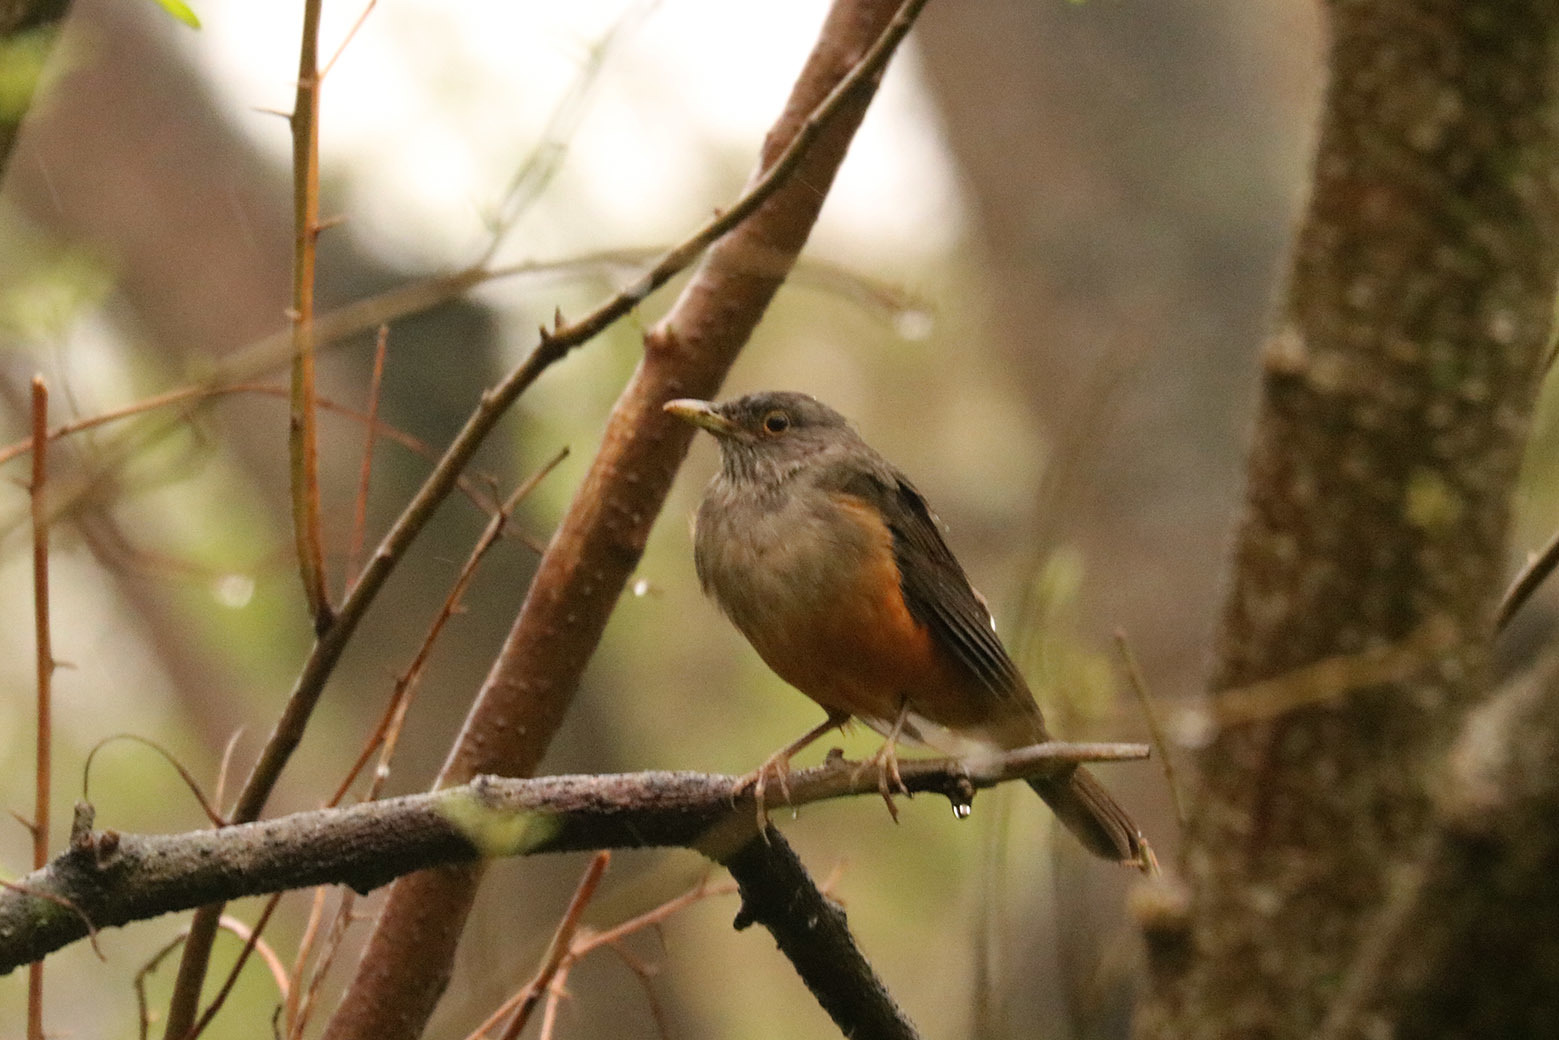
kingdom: Animalia
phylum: Chordata
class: Aves
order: Passeriformes
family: Turdidae
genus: Turdus
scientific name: Turdus rufiventris
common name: Rufous-bellied thrush
